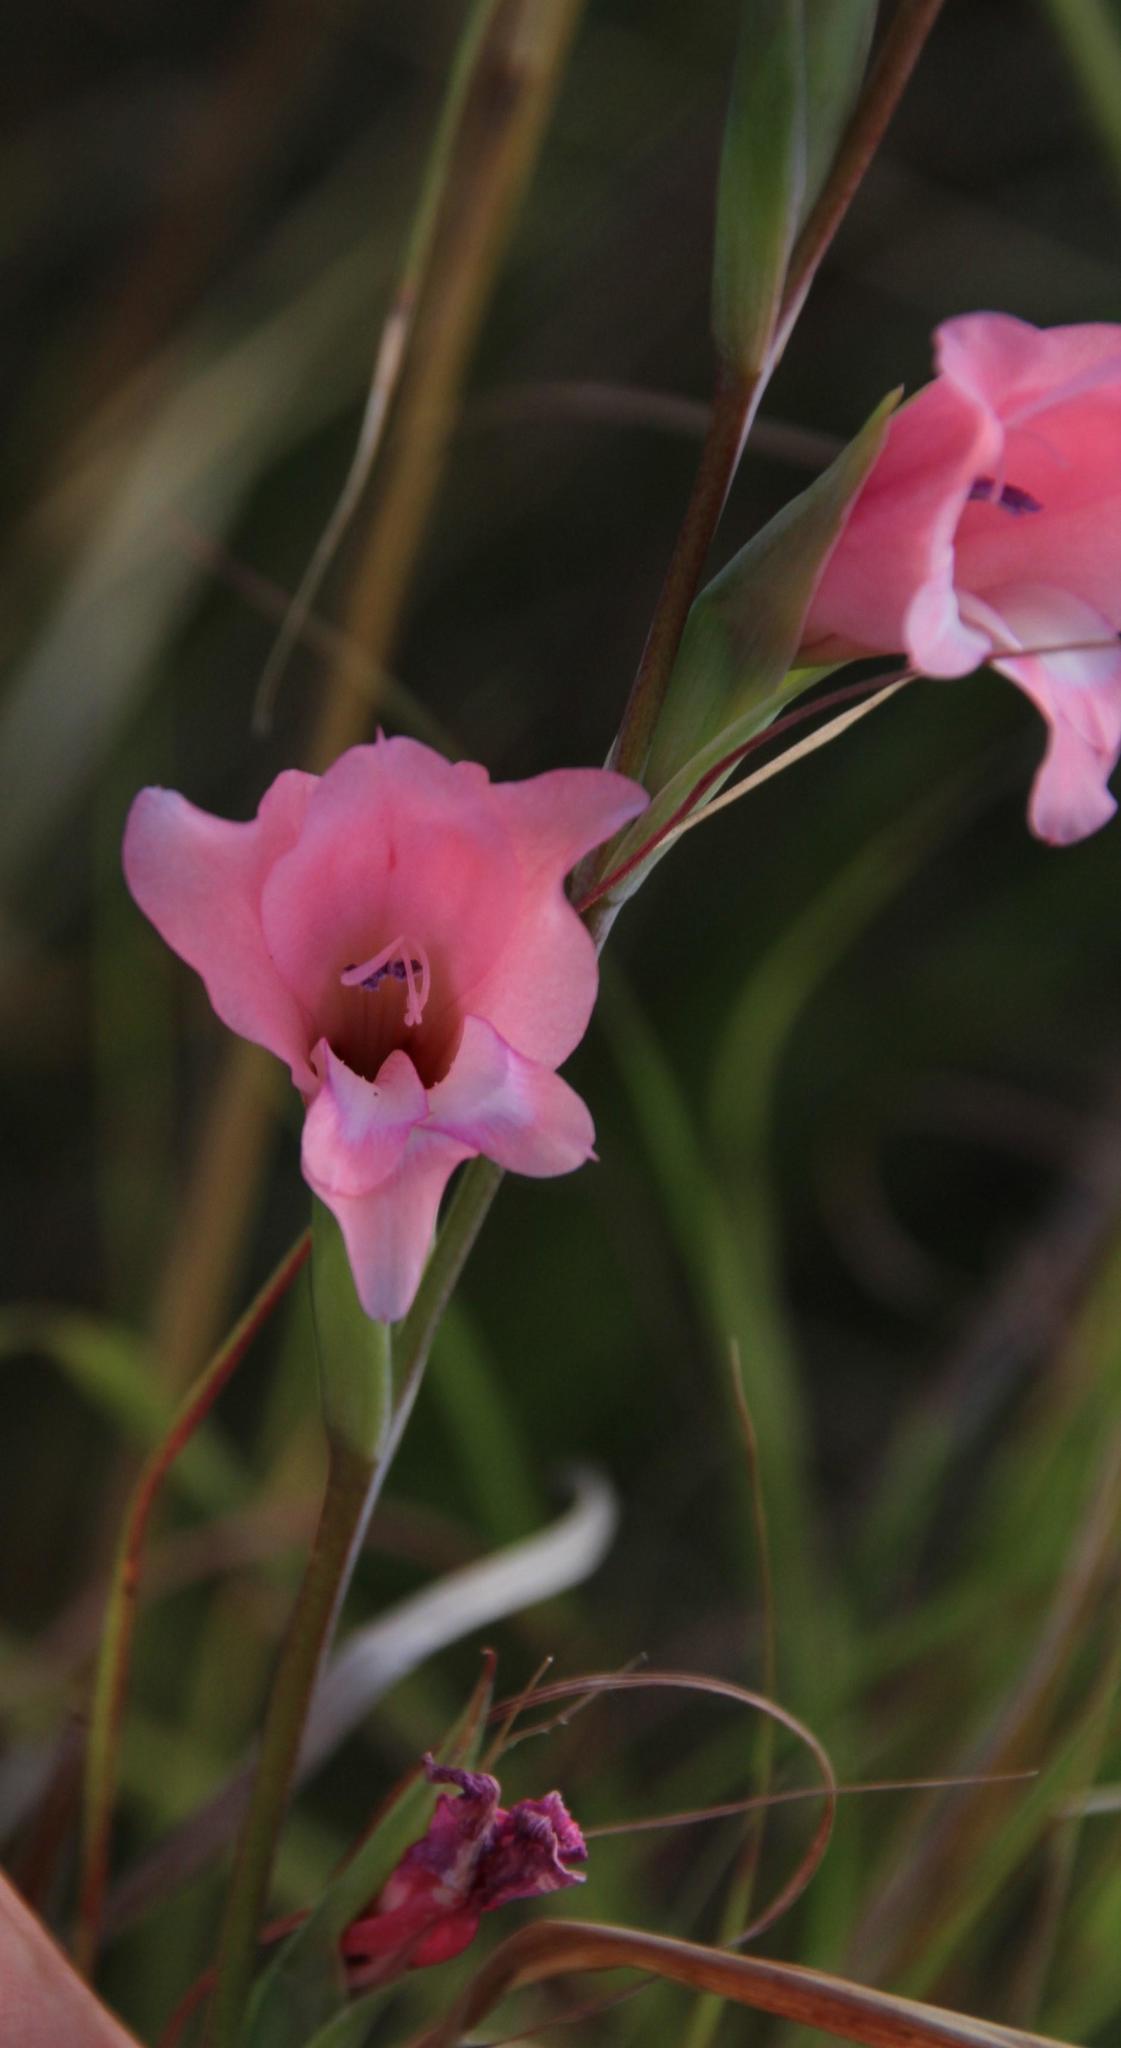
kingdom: Plantae
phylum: Tracheophyta
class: Liliopsida
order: Asparagales
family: Iridaceae
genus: Gladiolus
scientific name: Gladiolus ochroleucus
